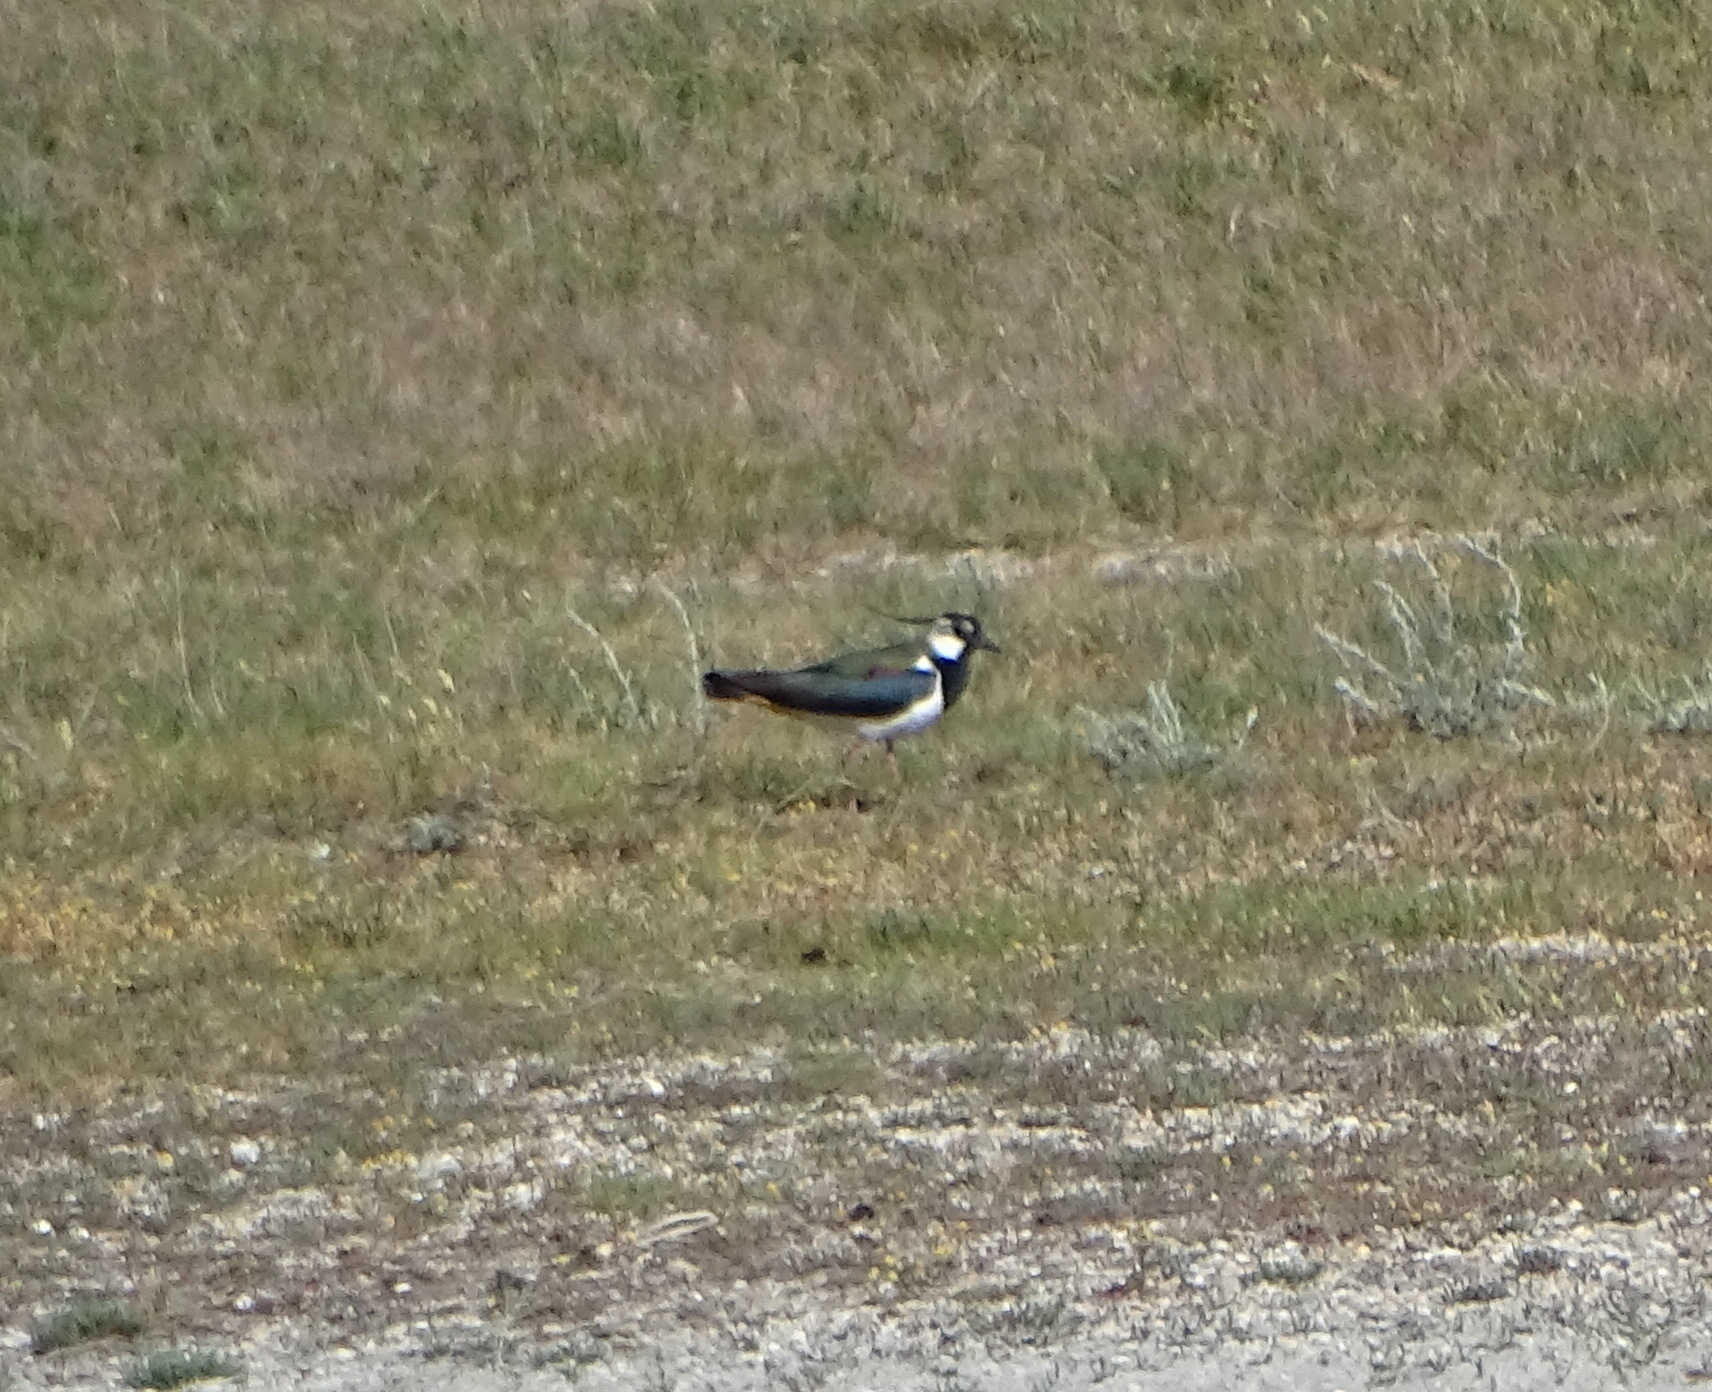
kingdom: Animalia
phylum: Chordata
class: Aves
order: Charadriiformes
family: Charadriidae
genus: Vanellus
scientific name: Vanellus vanellus
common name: Northern lapwing
